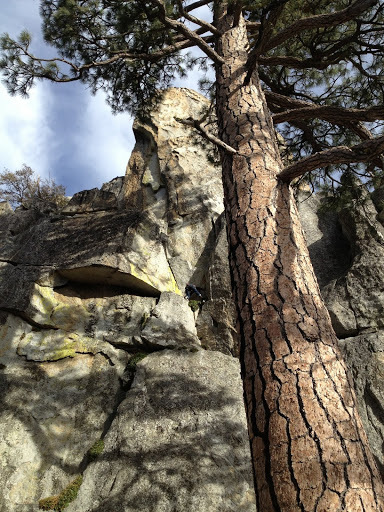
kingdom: Plantae
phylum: Tracheophyta
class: Pinopsida
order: Pinales
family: Pinaceae
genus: Pinus
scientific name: Pinus jeffreyi
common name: Jeffrey pine
